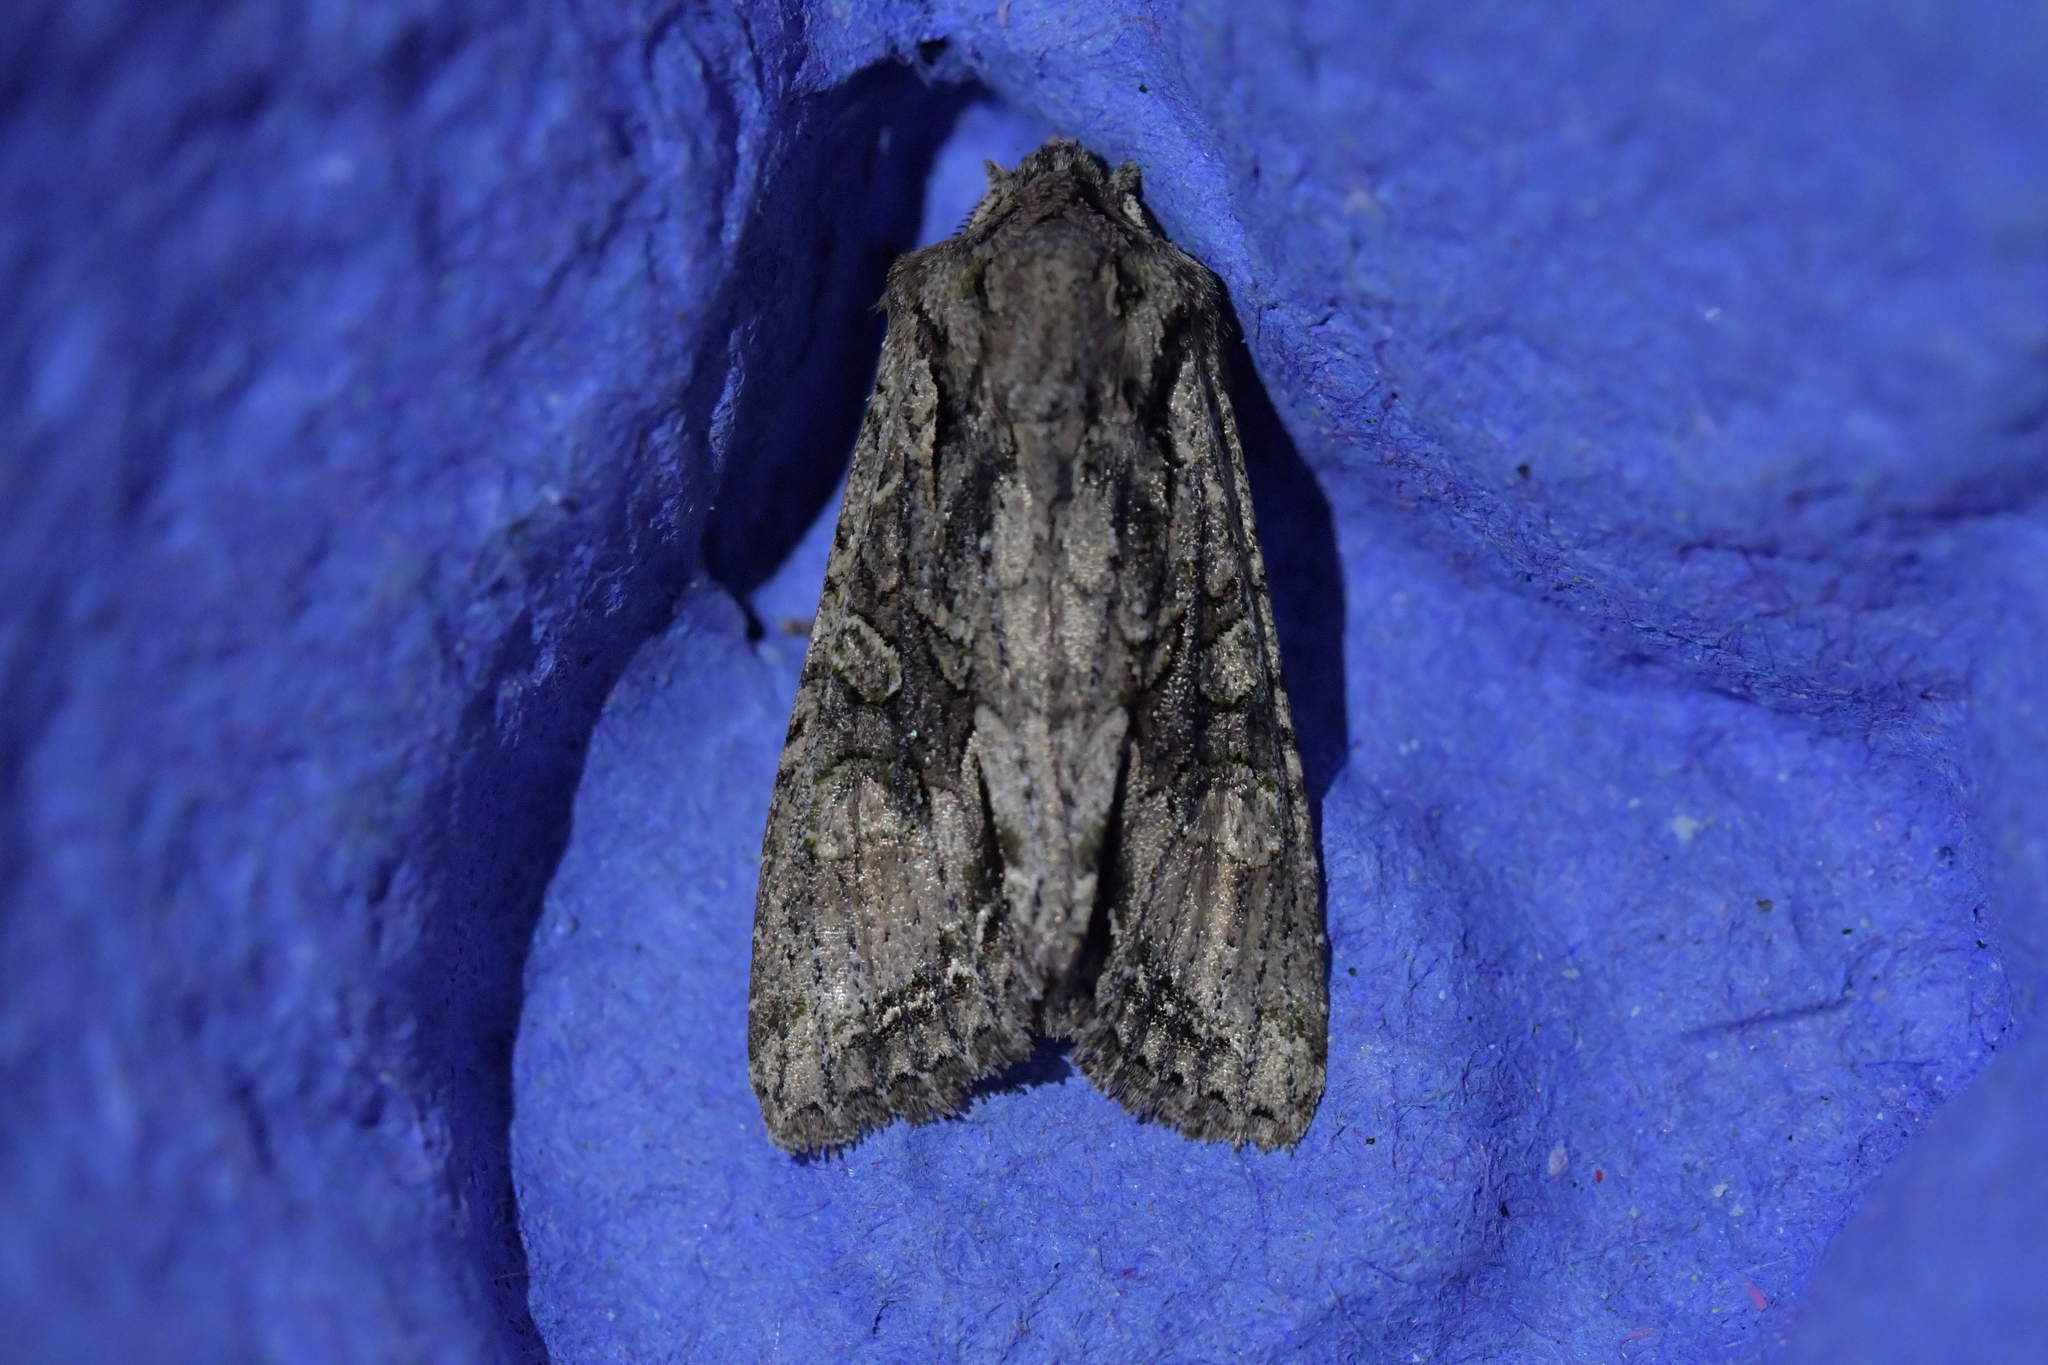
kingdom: Animalia
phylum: Arthropoda
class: Insecta
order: Lepidoptera
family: Noctuidae
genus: Ichneutica
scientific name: Ichneutica mutans
